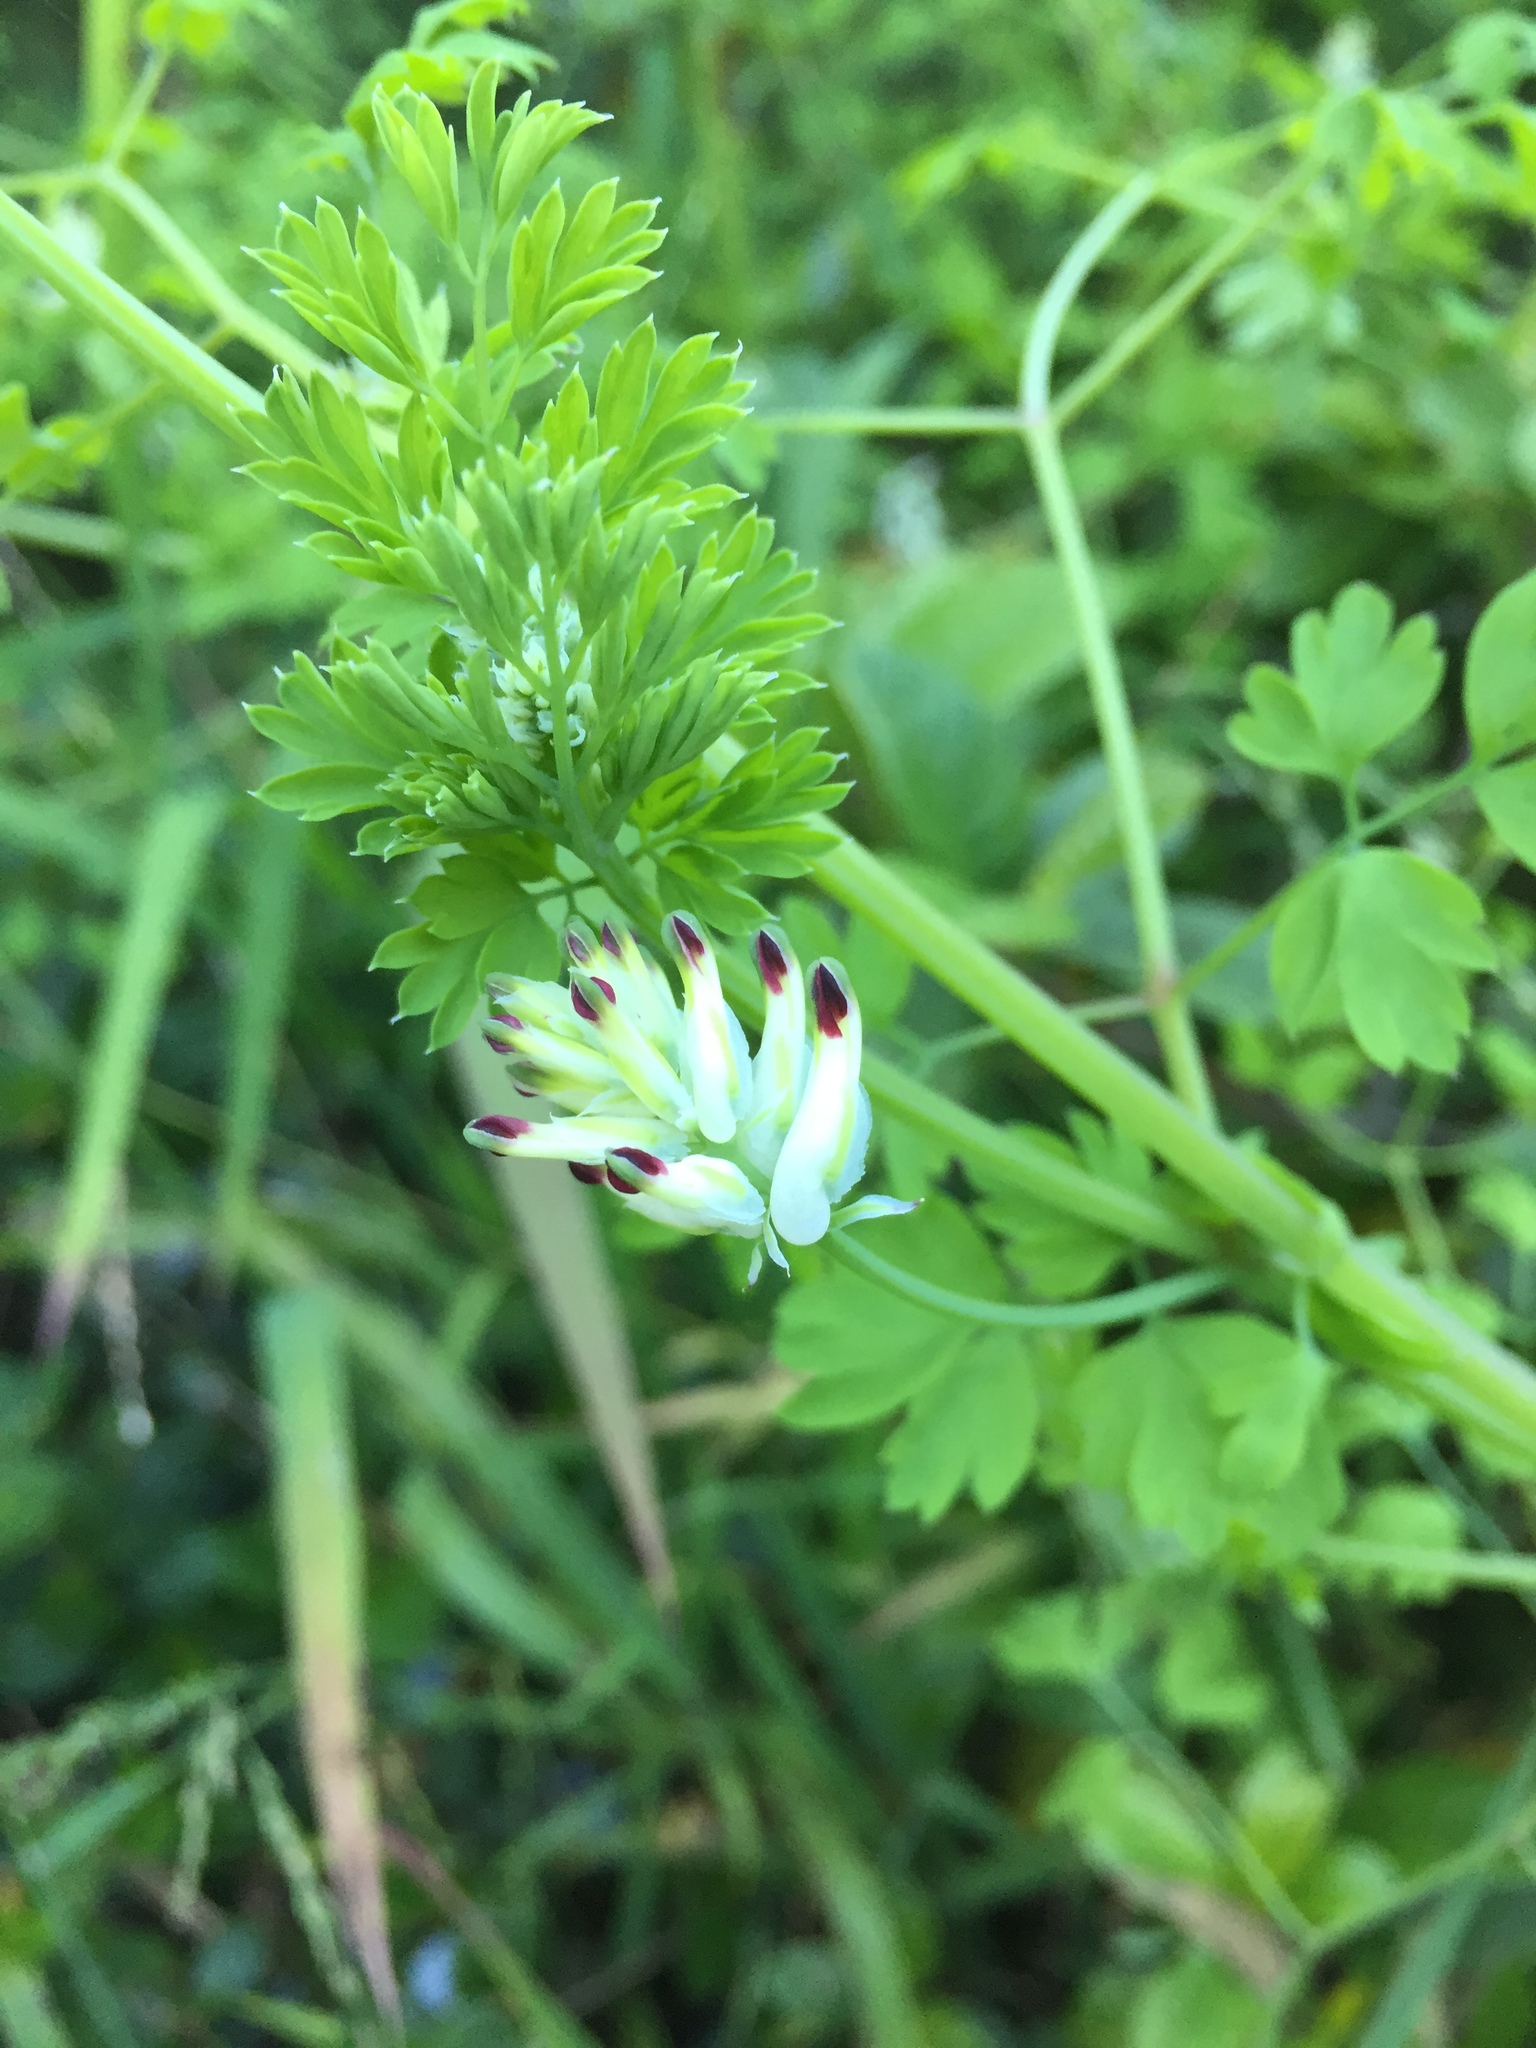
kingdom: Plantae
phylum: Tracheophyta
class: Magnoliopsida
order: Ranunculales
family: Papaveraceae
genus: Fumaria
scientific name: Fumaria capreolata
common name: White ramping-fumitory
